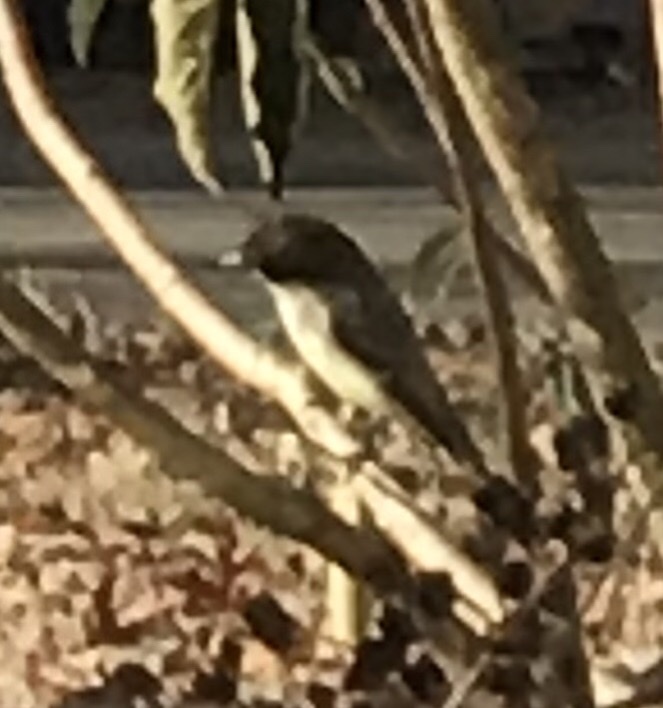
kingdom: Animalia
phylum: Chordata
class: Aves
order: Passeriformes
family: Tyrannidae
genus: Sayornis
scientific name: Sayornis phoebe
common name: Eastern phoebe
